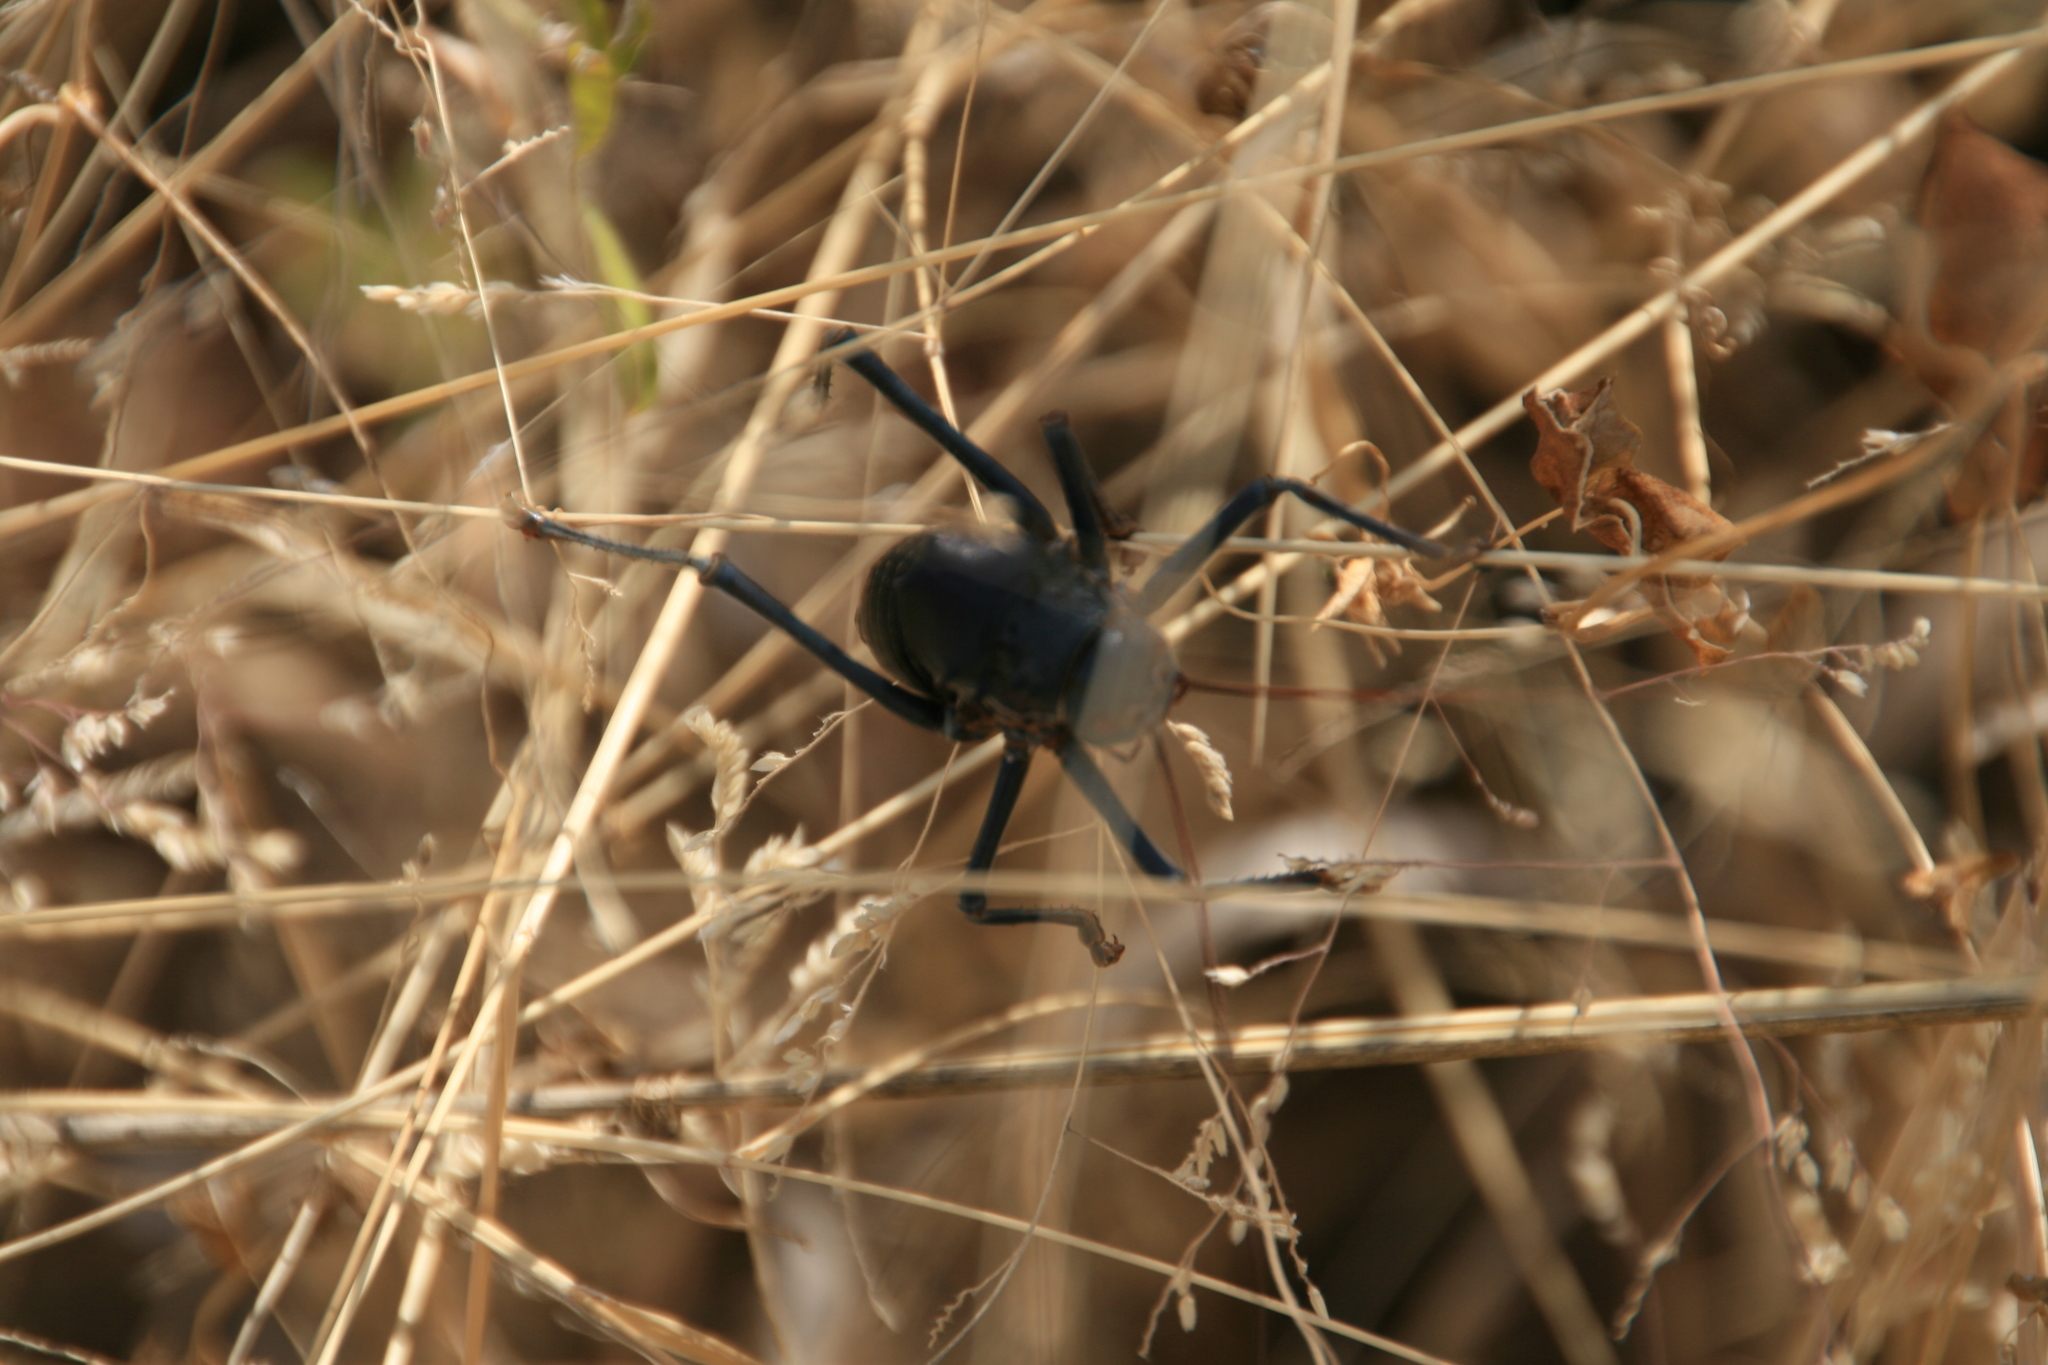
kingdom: Animalia
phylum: Arthropoda
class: Insecta
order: Orthoptera
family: Tettigoniidae
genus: Acanthoplus
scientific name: Acanthoplus discoidalis
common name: Armoured katydid
